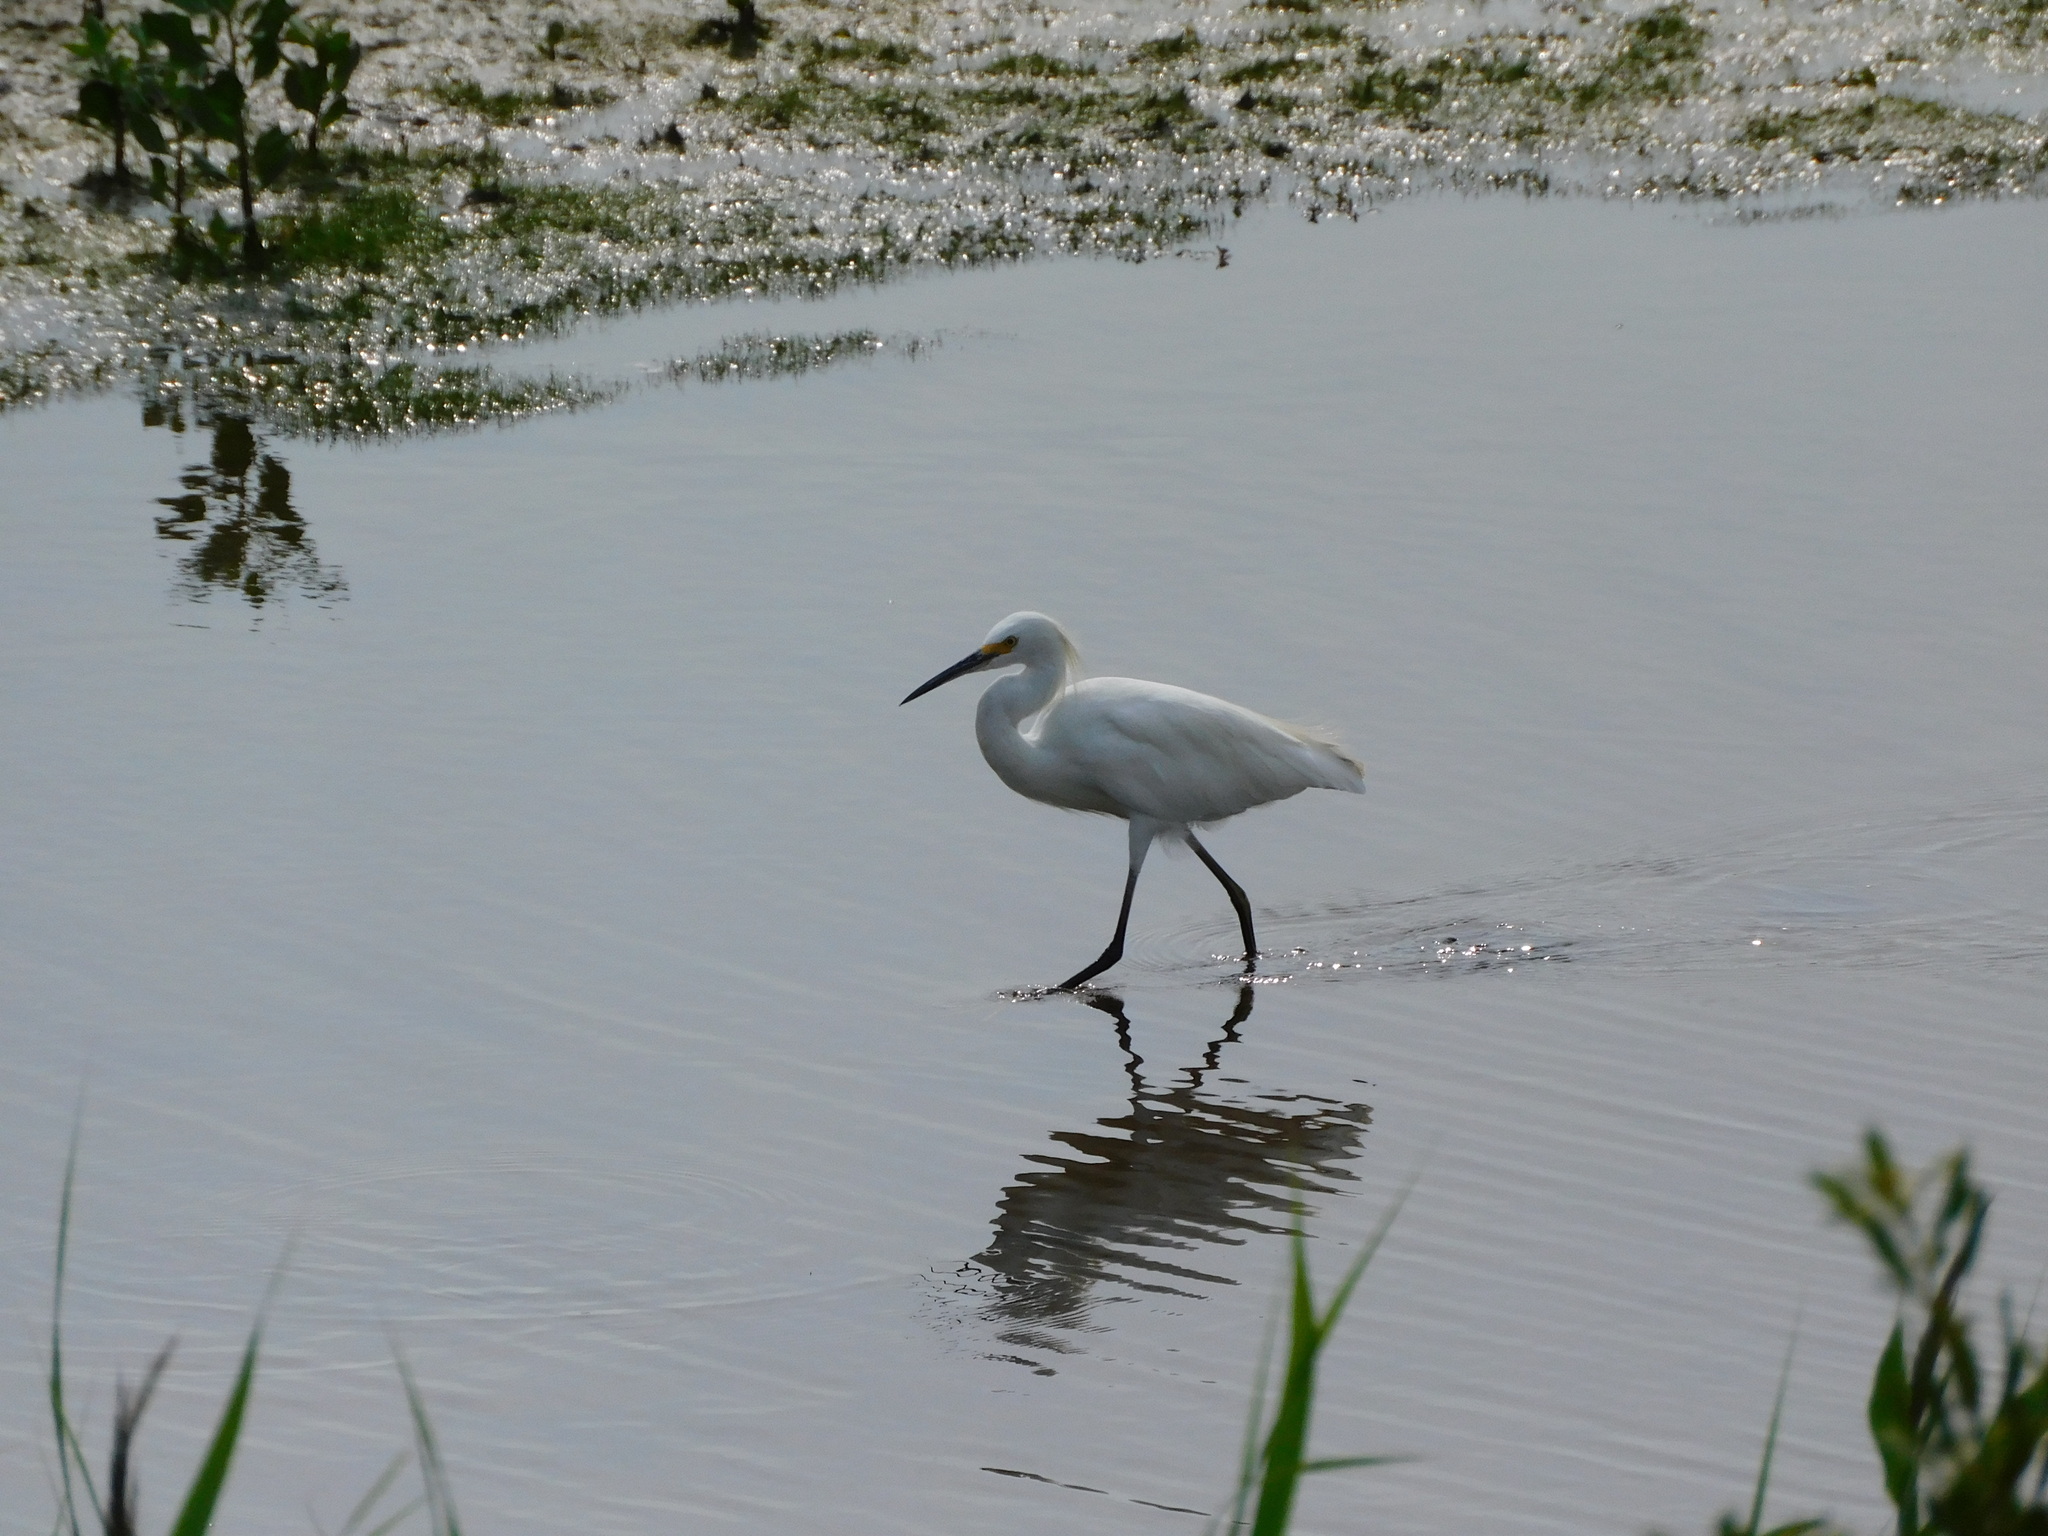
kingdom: Animalia
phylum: Chordata
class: Aves
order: Pelecaniformes
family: Ardeidae
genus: Egretta
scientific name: Egretta thula
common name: Snowy egret
